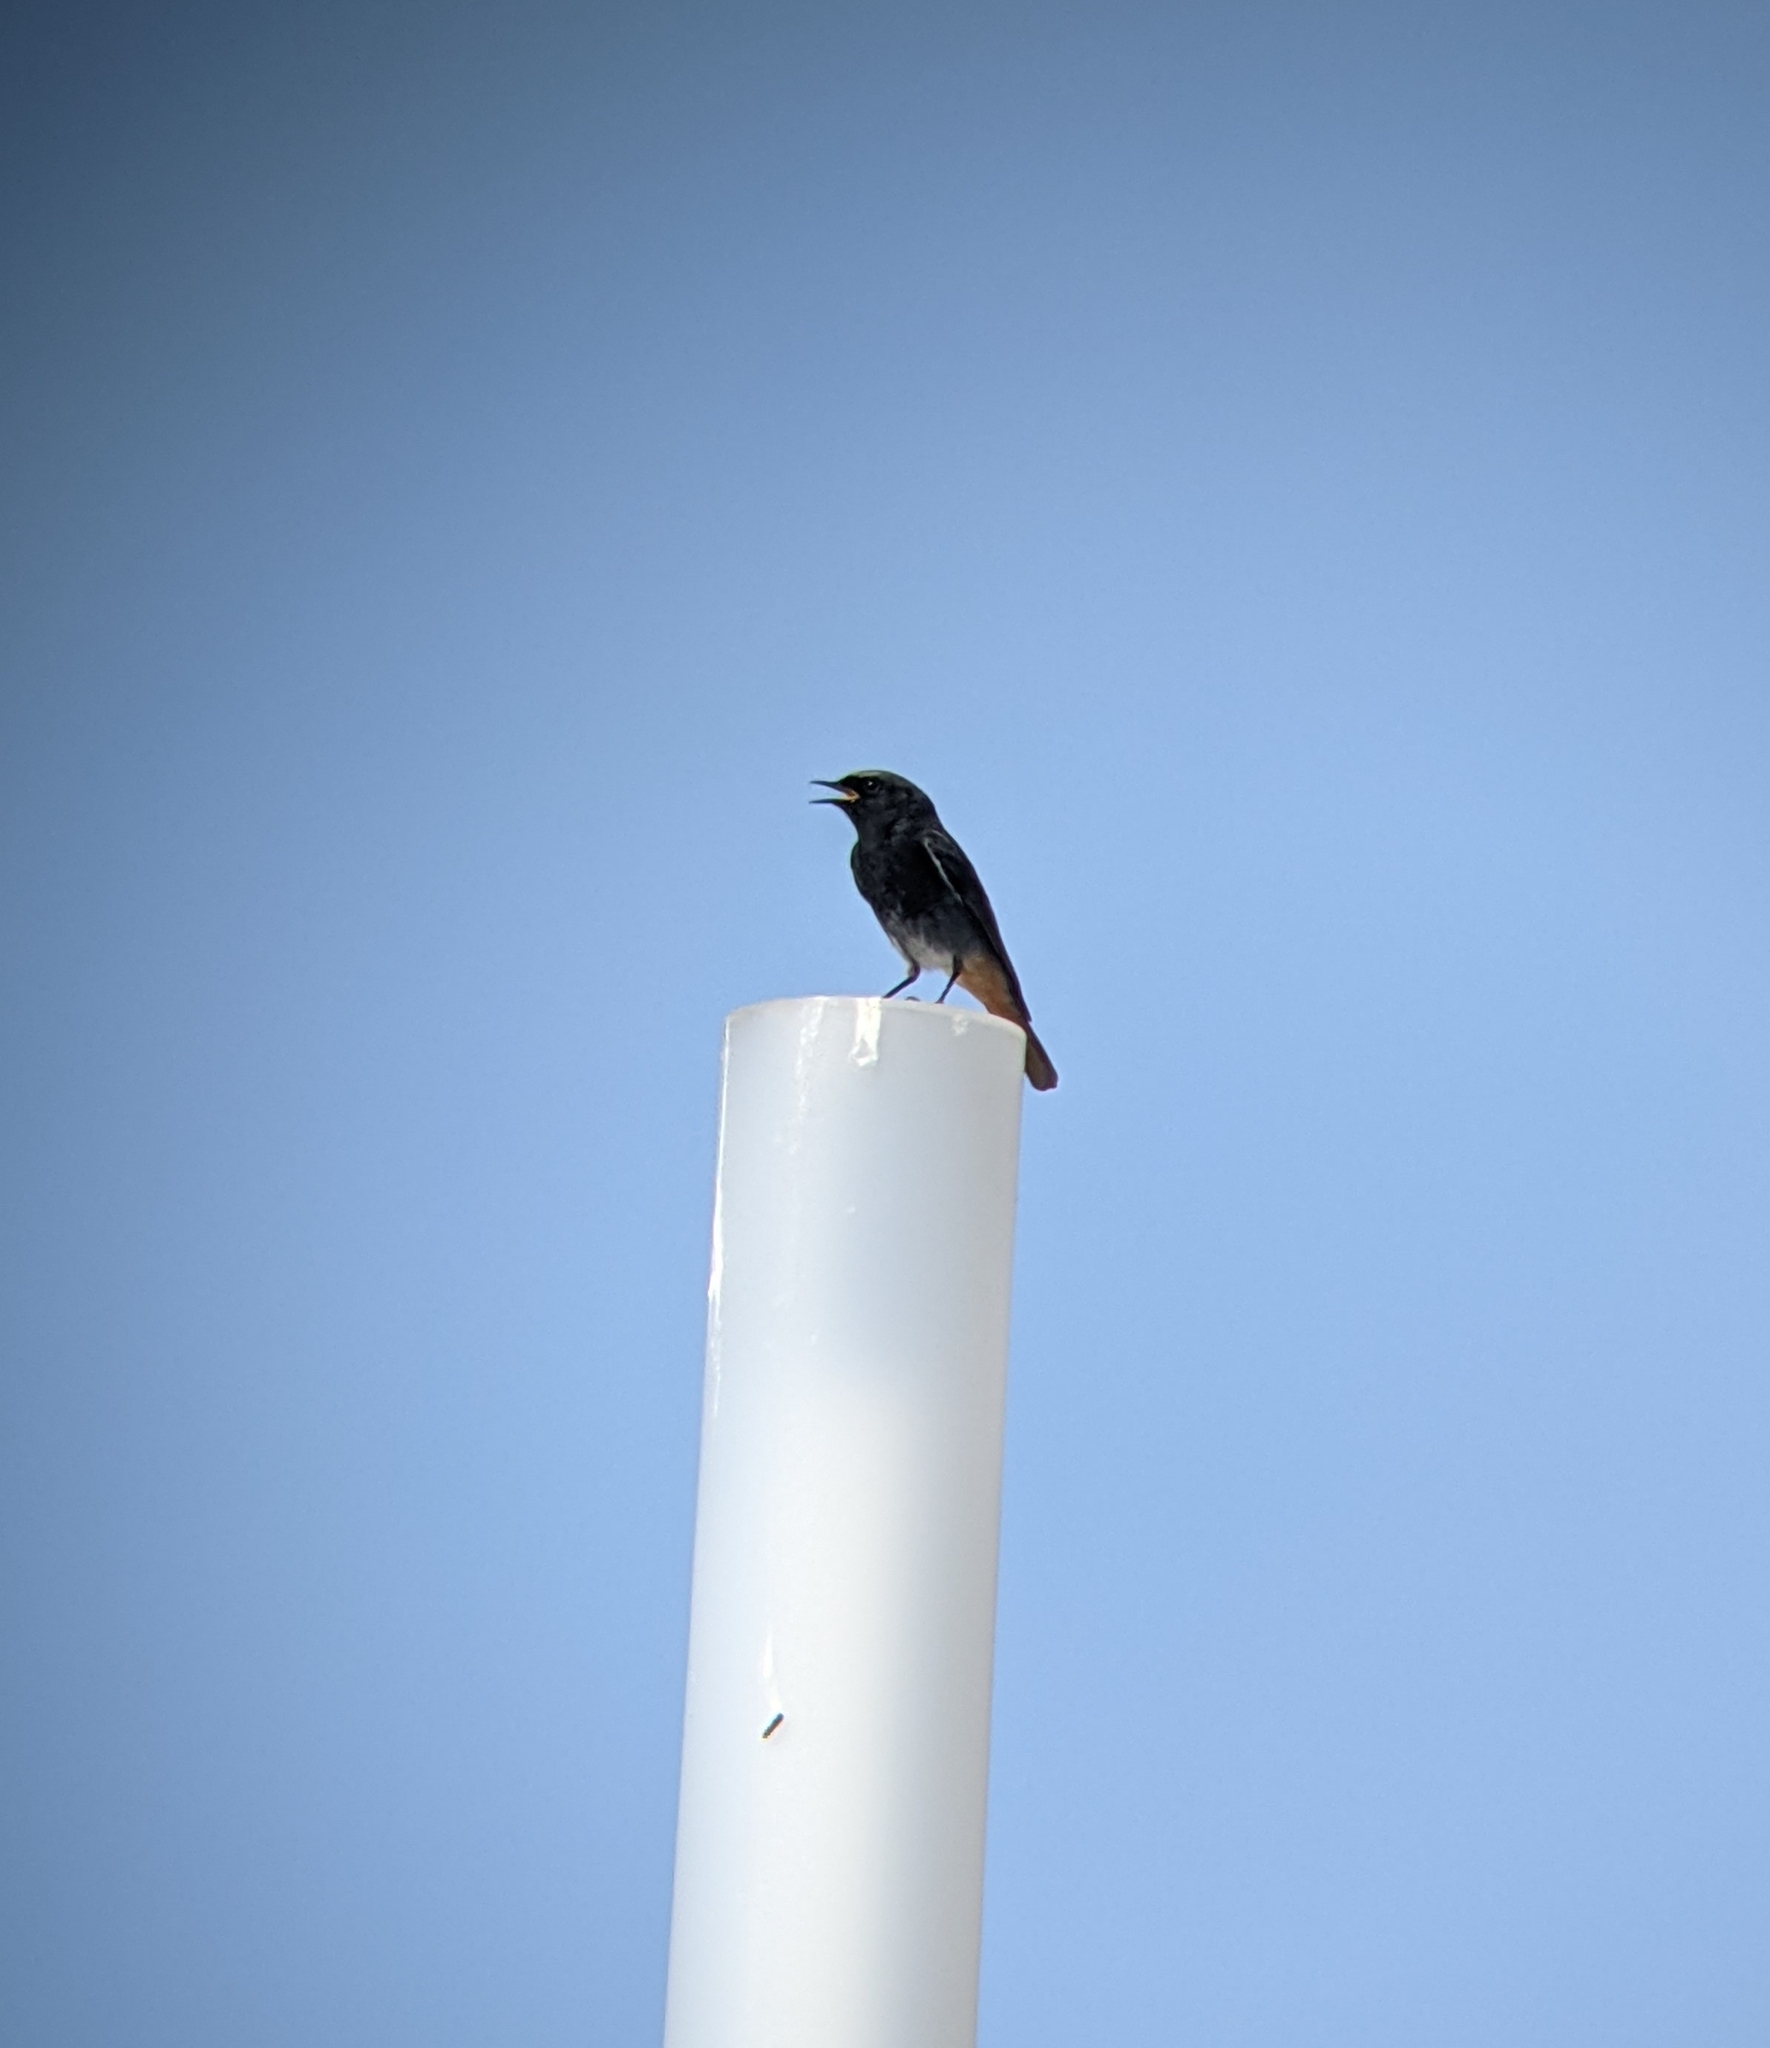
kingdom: Animalia
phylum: Chordata
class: Aves
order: Passeriformes
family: Muscicapidae
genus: Phoenicurus
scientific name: Phoenicurus ochruros
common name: Black redstart
